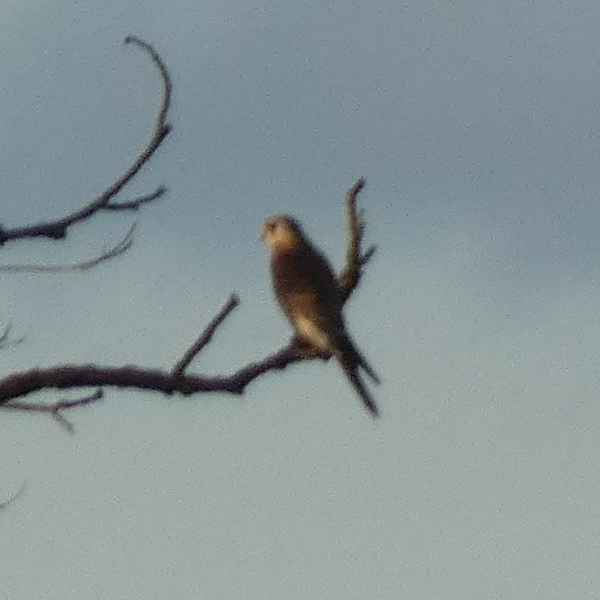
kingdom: Animalia
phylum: Chordata
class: Aves
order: Falconiformes
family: Falconidae
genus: Falco
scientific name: Falco tinnunculus
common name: Common kestrel
